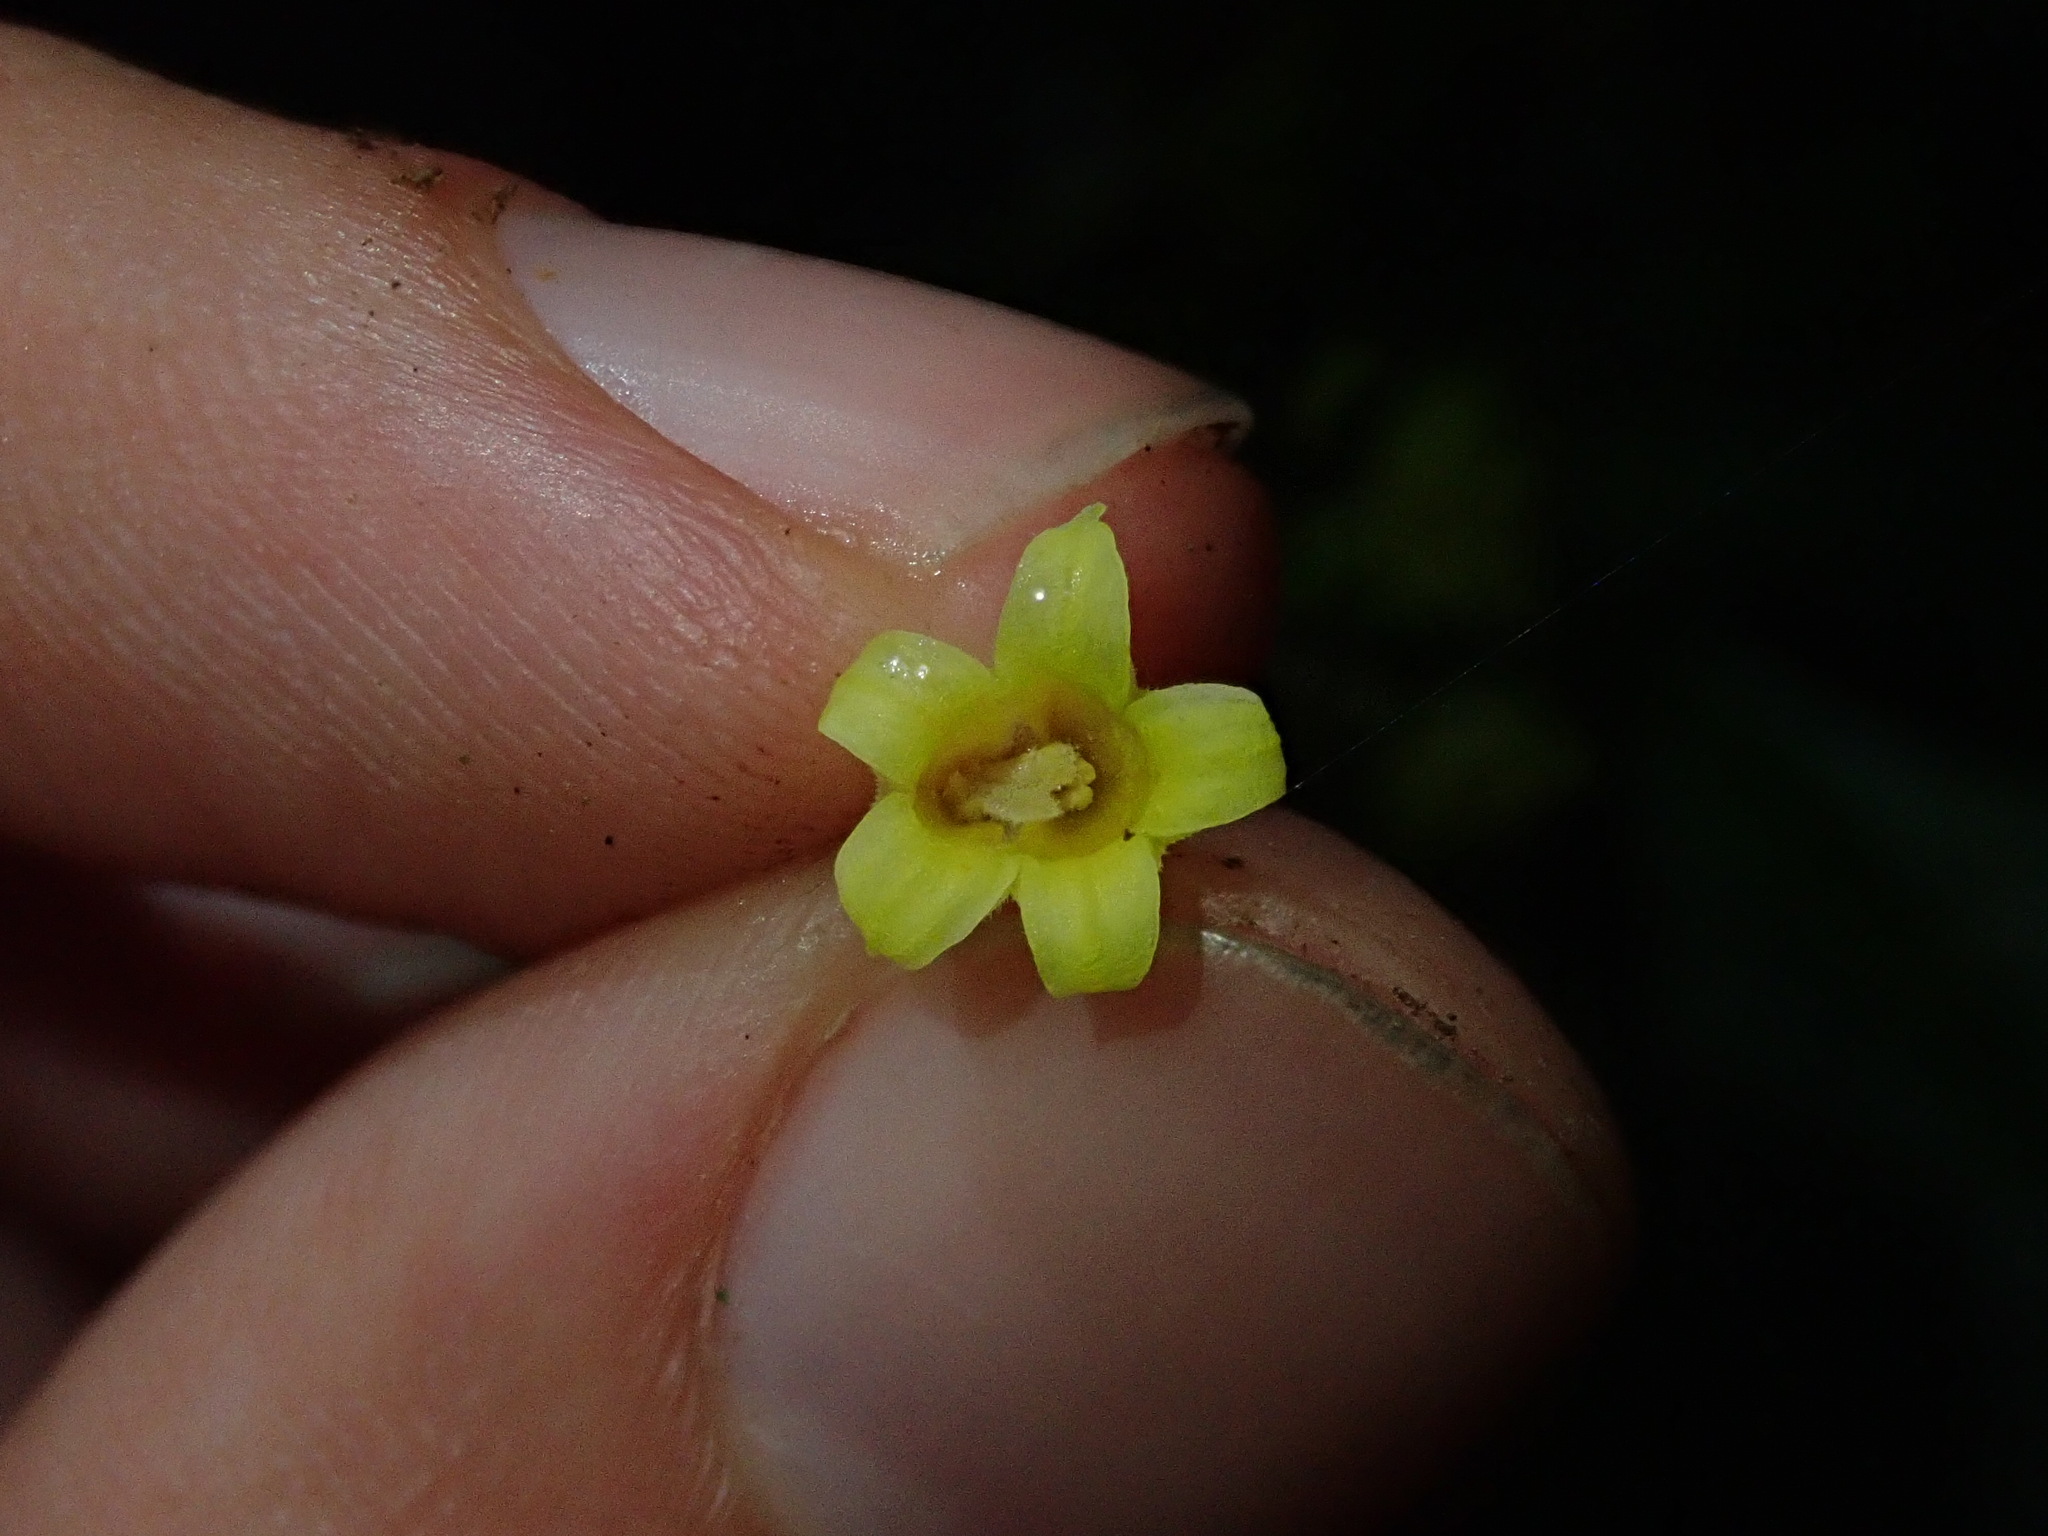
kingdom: Plantae
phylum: Tracheophyta
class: Magnoliopsida
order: Gentianales
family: Rubiaceae
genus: Palicourea
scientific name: Palicourea caerulea
